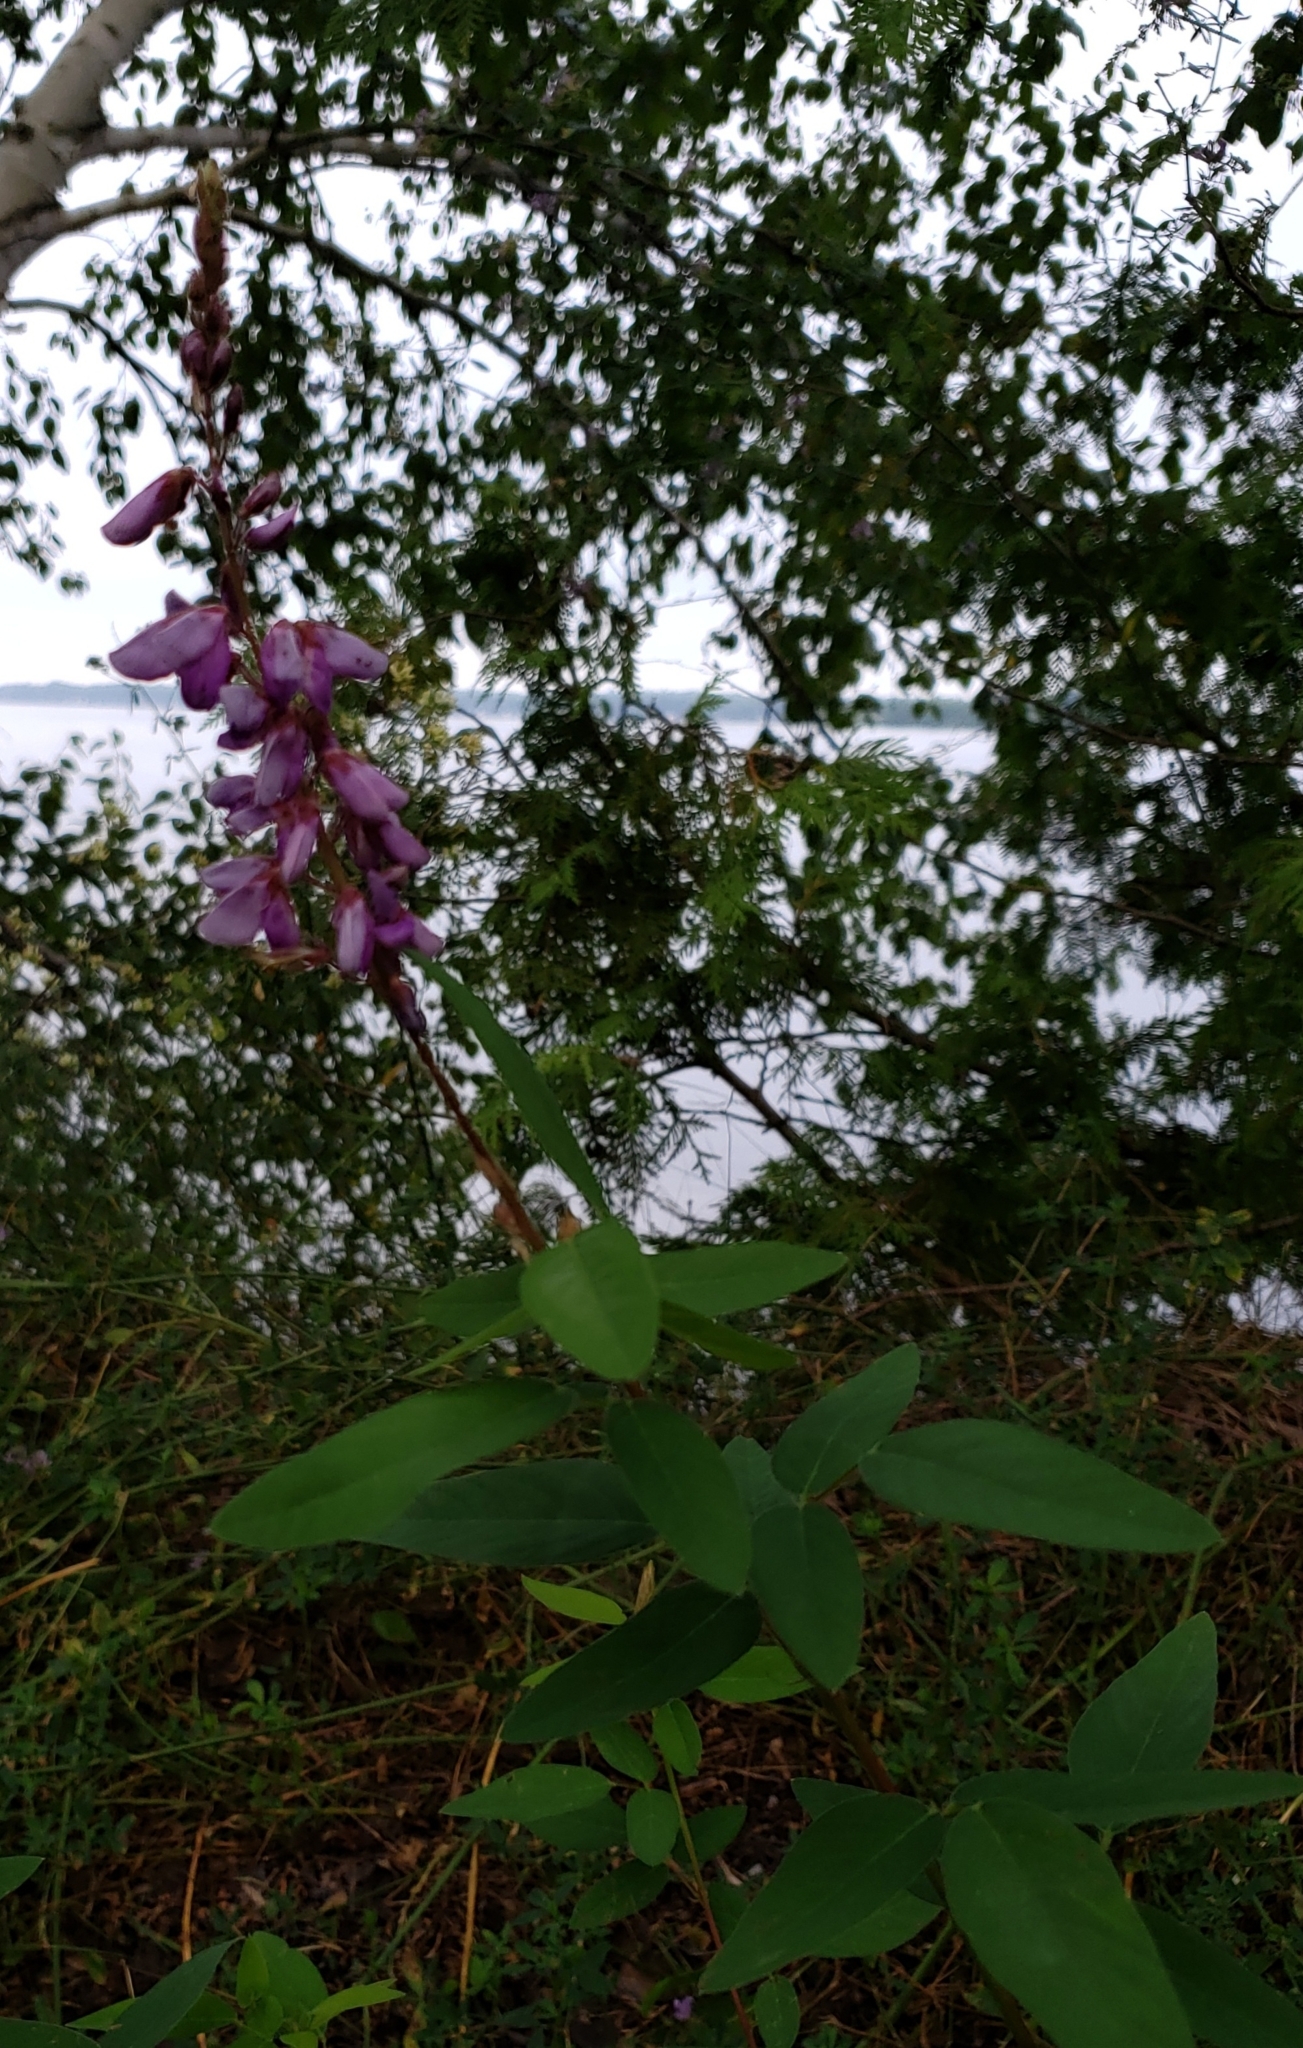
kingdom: Plantae
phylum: Tracheophyta
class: Magnoliopsida
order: Fabales
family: Fabaceae
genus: Desmodium
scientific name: Desmodium canadense
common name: Canada tick-trefoil
